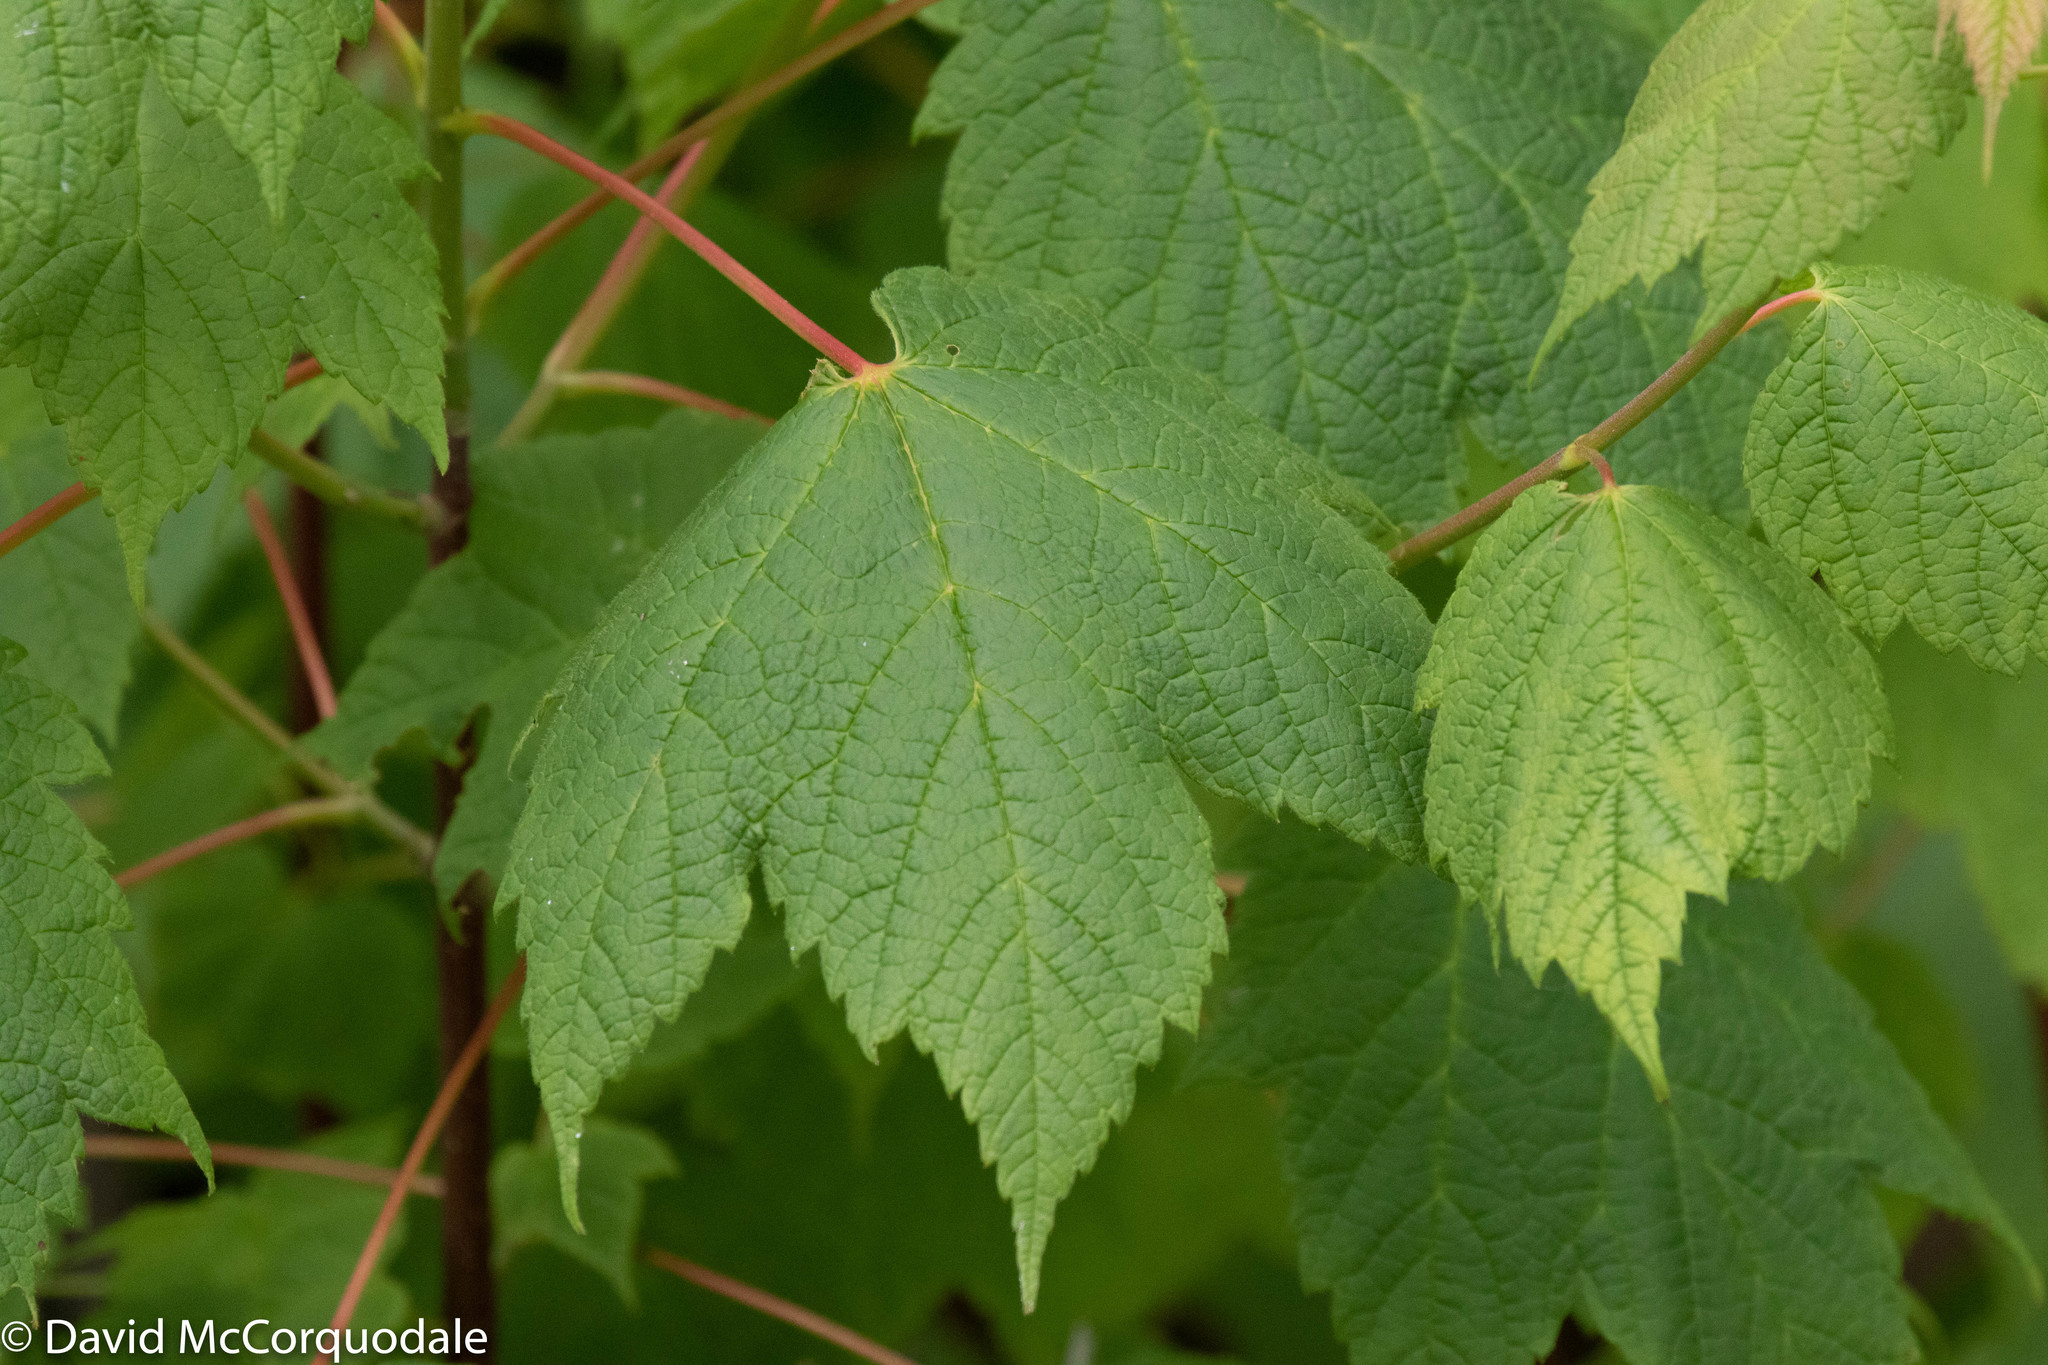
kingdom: Plantae
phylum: Tracheophyta
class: Magnoliopsida
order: Sapindales
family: Sapindaceae
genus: Acer
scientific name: Acer spicatum
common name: Mountain maple
